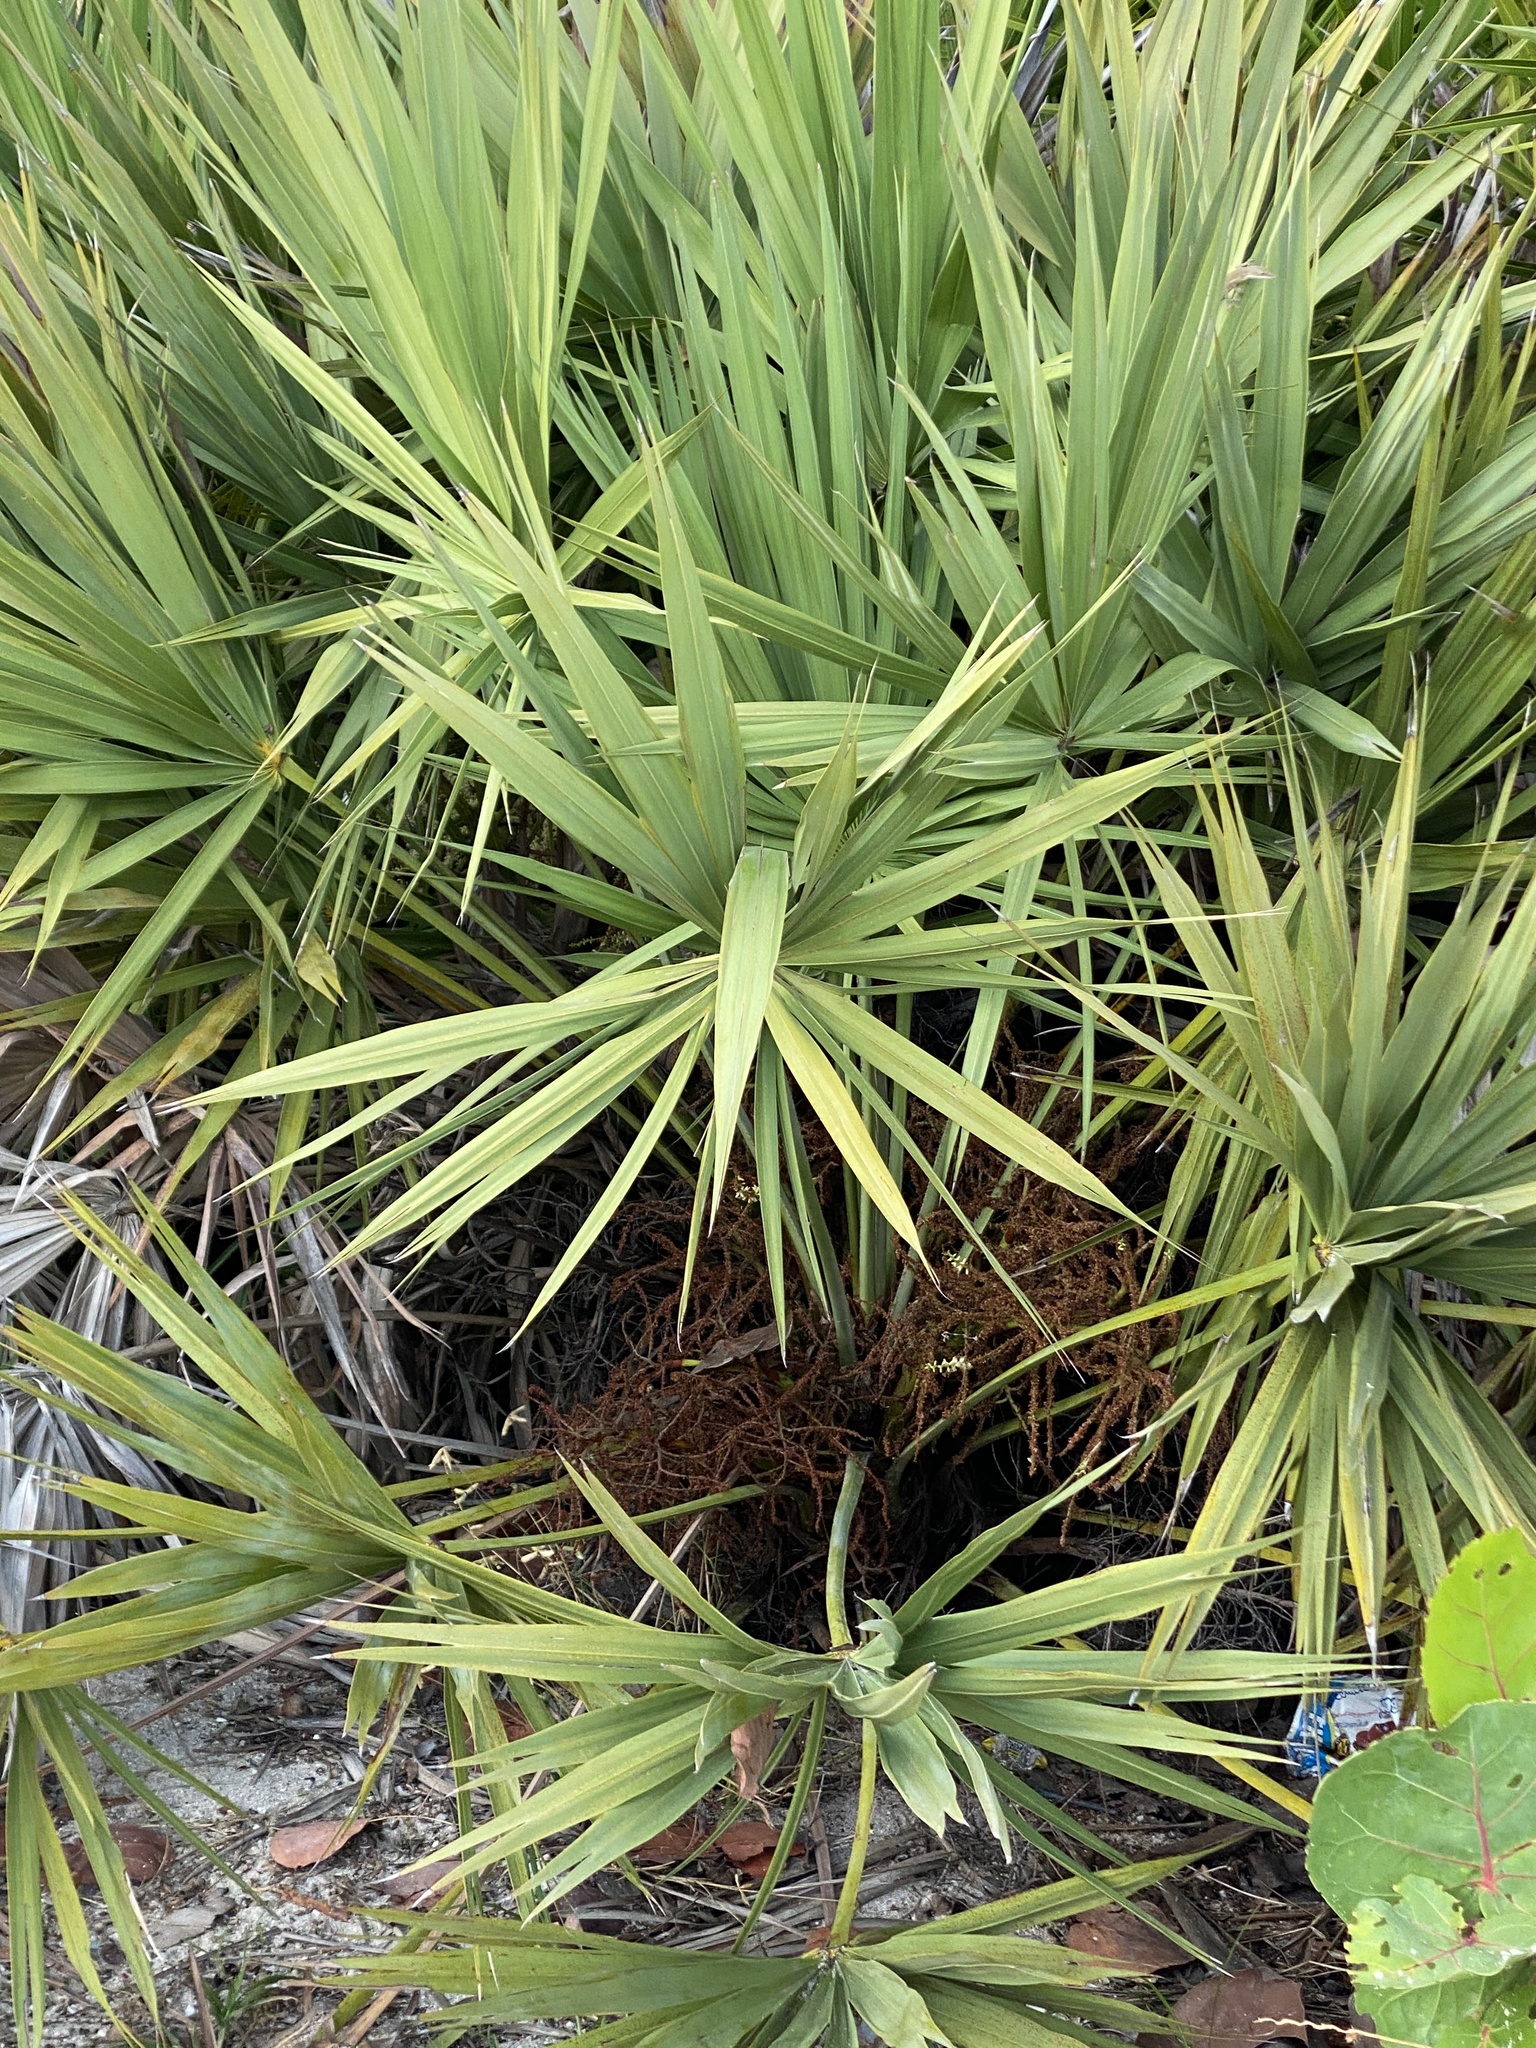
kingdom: Plantae
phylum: Tracheophyta
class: Liliopsida
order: Arecales
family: Arecaceae
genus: Serenoa
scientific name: Serenoa repens
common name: Saw-palmetto
